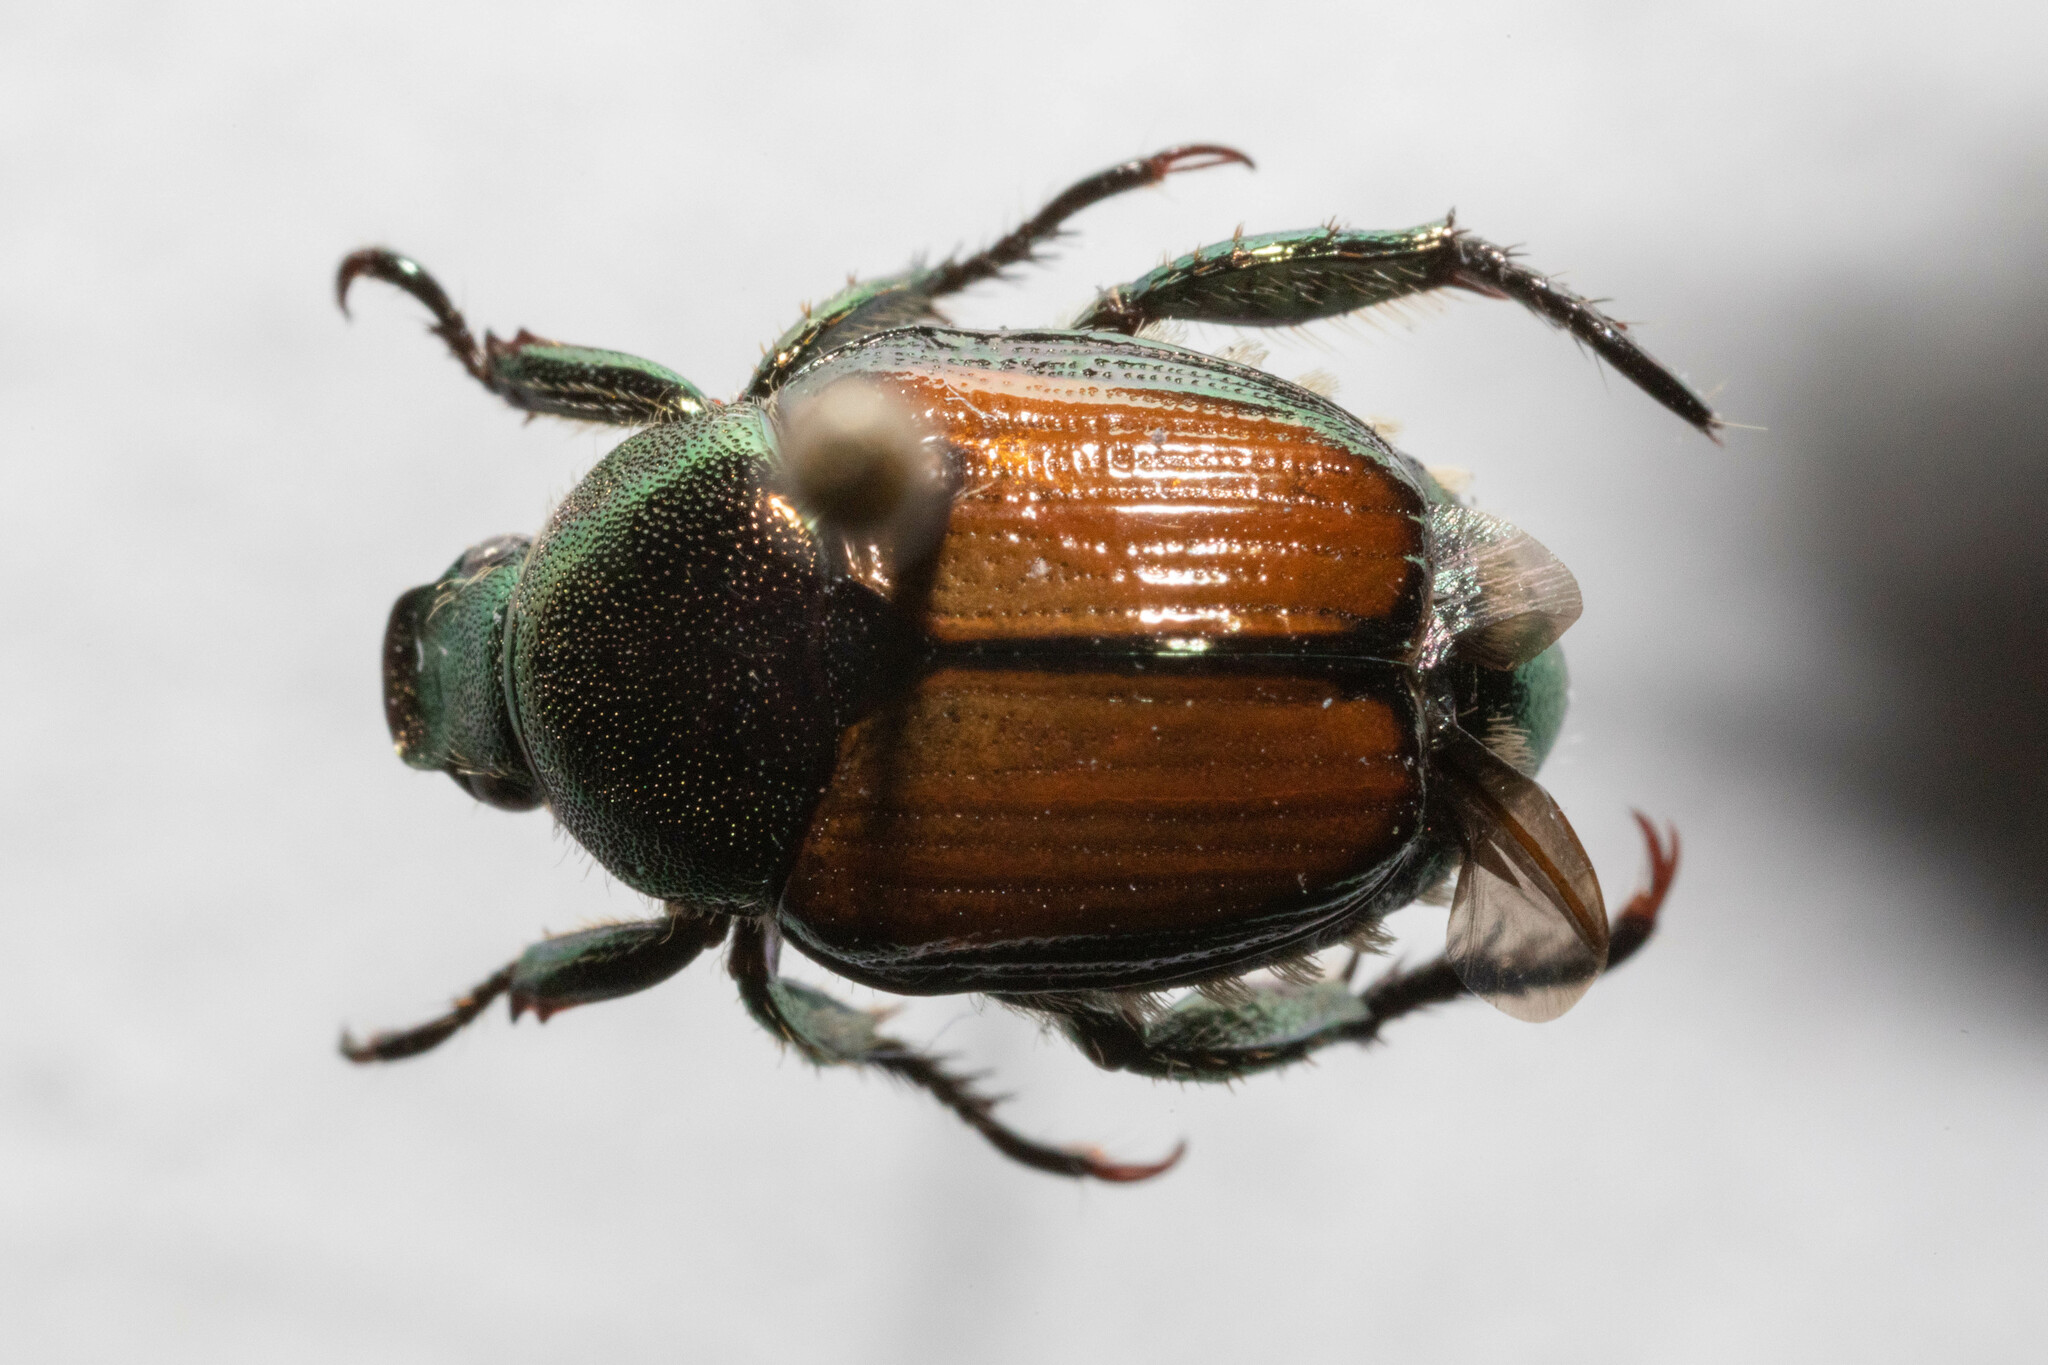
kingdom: Animalia
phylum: Arthropoda
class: Insecta
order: Coleoptera
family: Scarabaeidae
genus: Popillia
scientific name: Popillia japonica
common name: Japanese beetle
